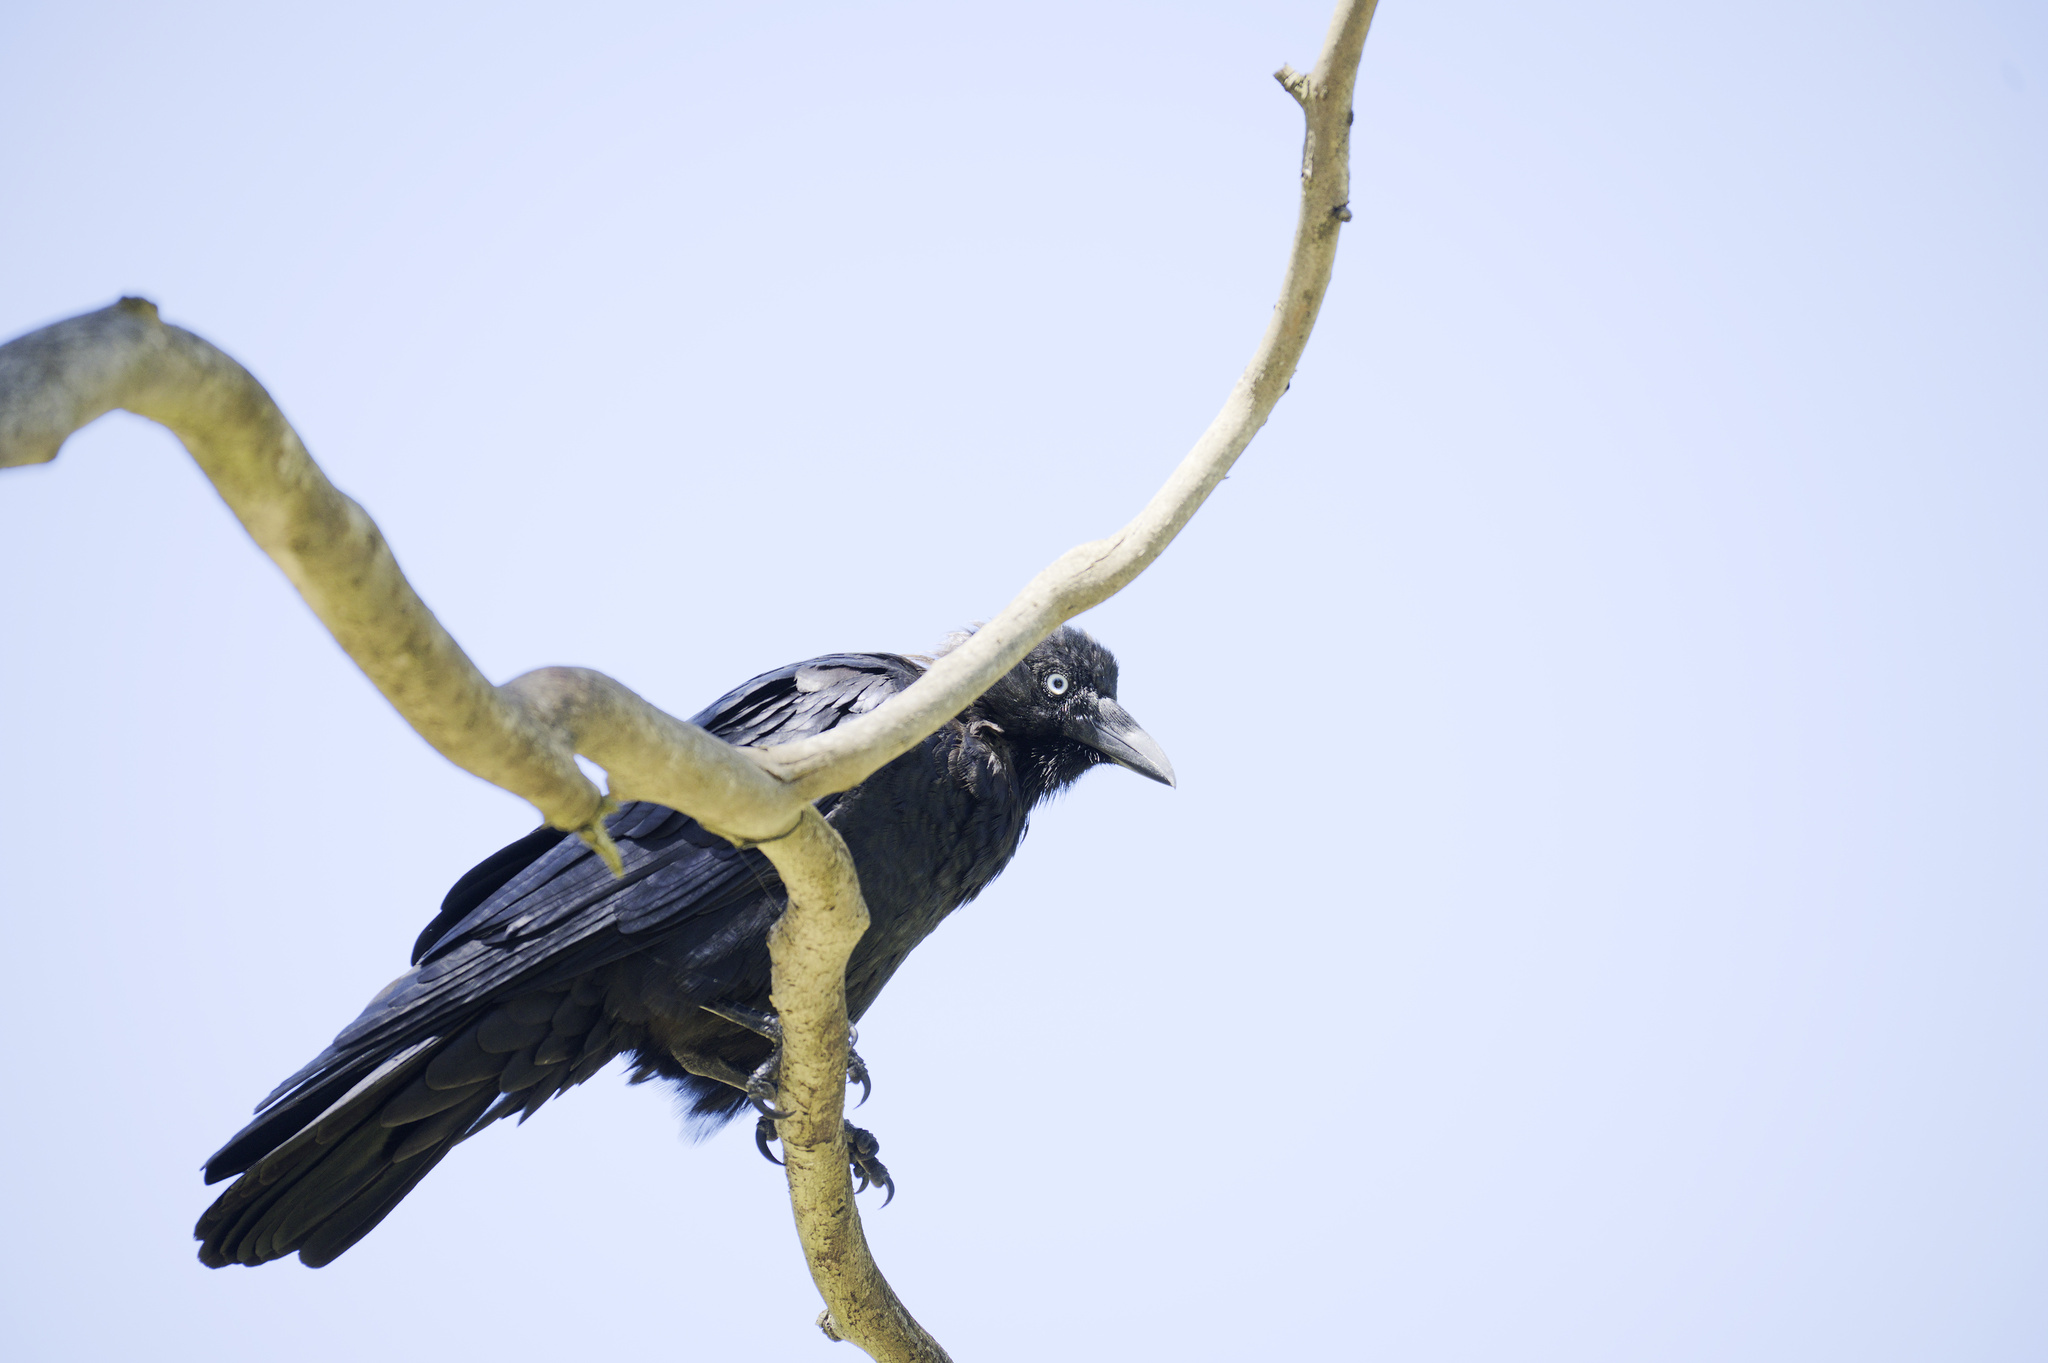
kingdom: Animalia
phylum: Chordata
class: Aves
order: Passeriformes
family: Corvidae
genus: Corvus
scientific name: Corvus mellori
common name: Little raven
